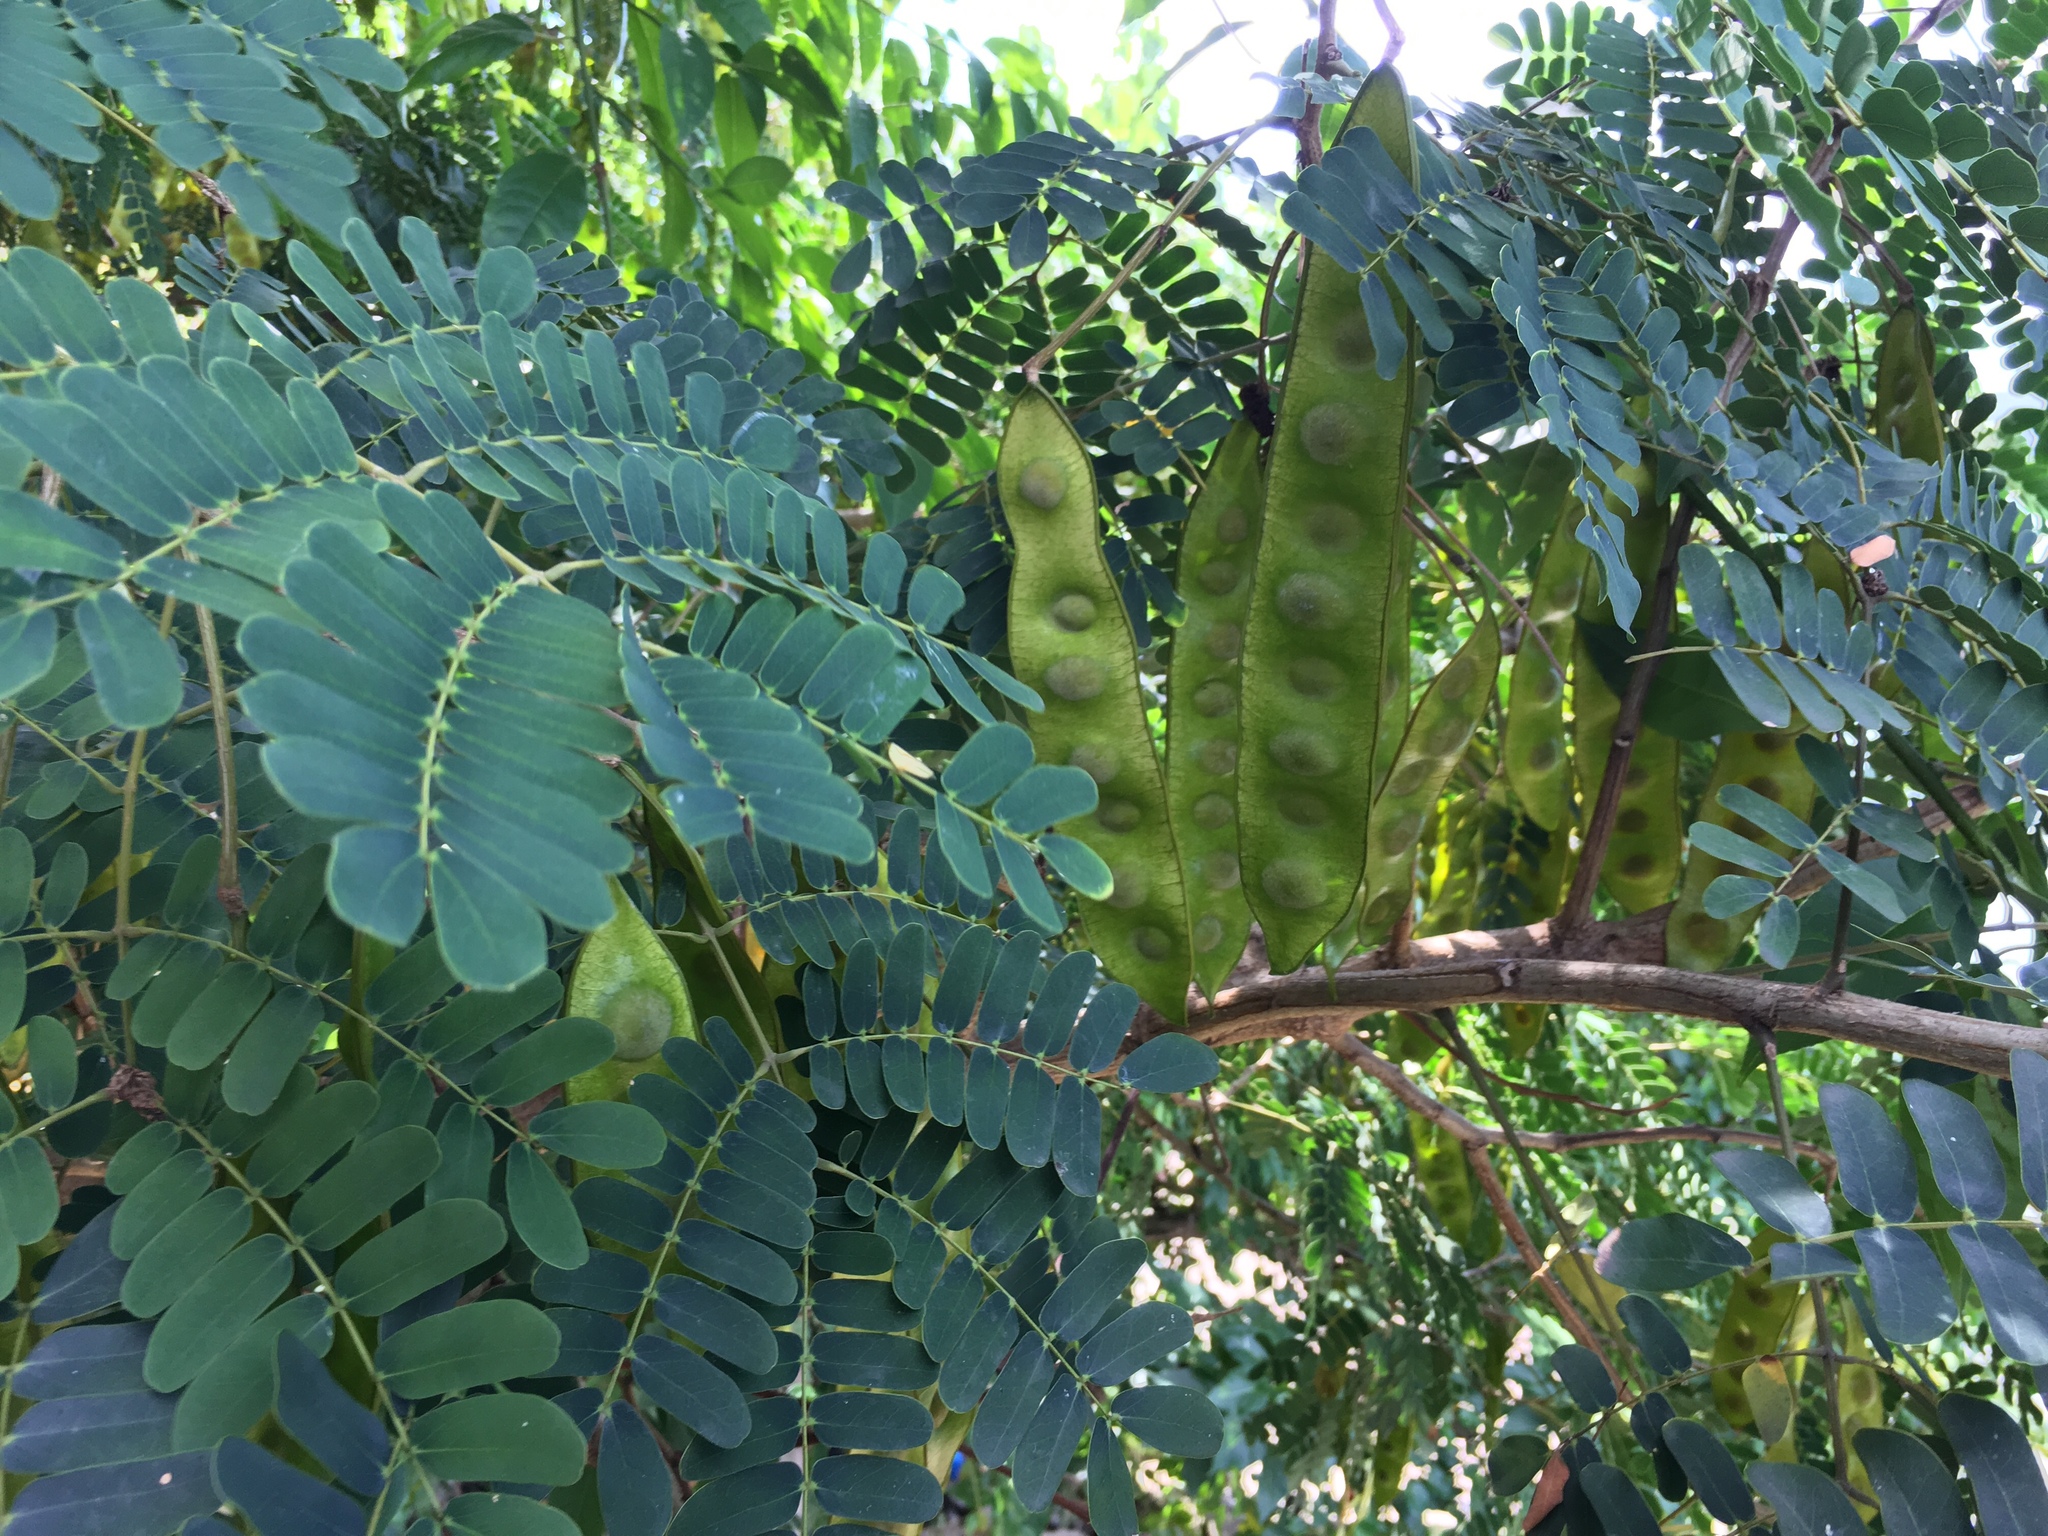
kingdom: Plantae
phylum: Tracheophyta
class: Magnoliopsida
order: Fabales
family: Fabaceae
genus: Albizia
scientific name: Albizia lebbeck
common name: Woman's tongue
